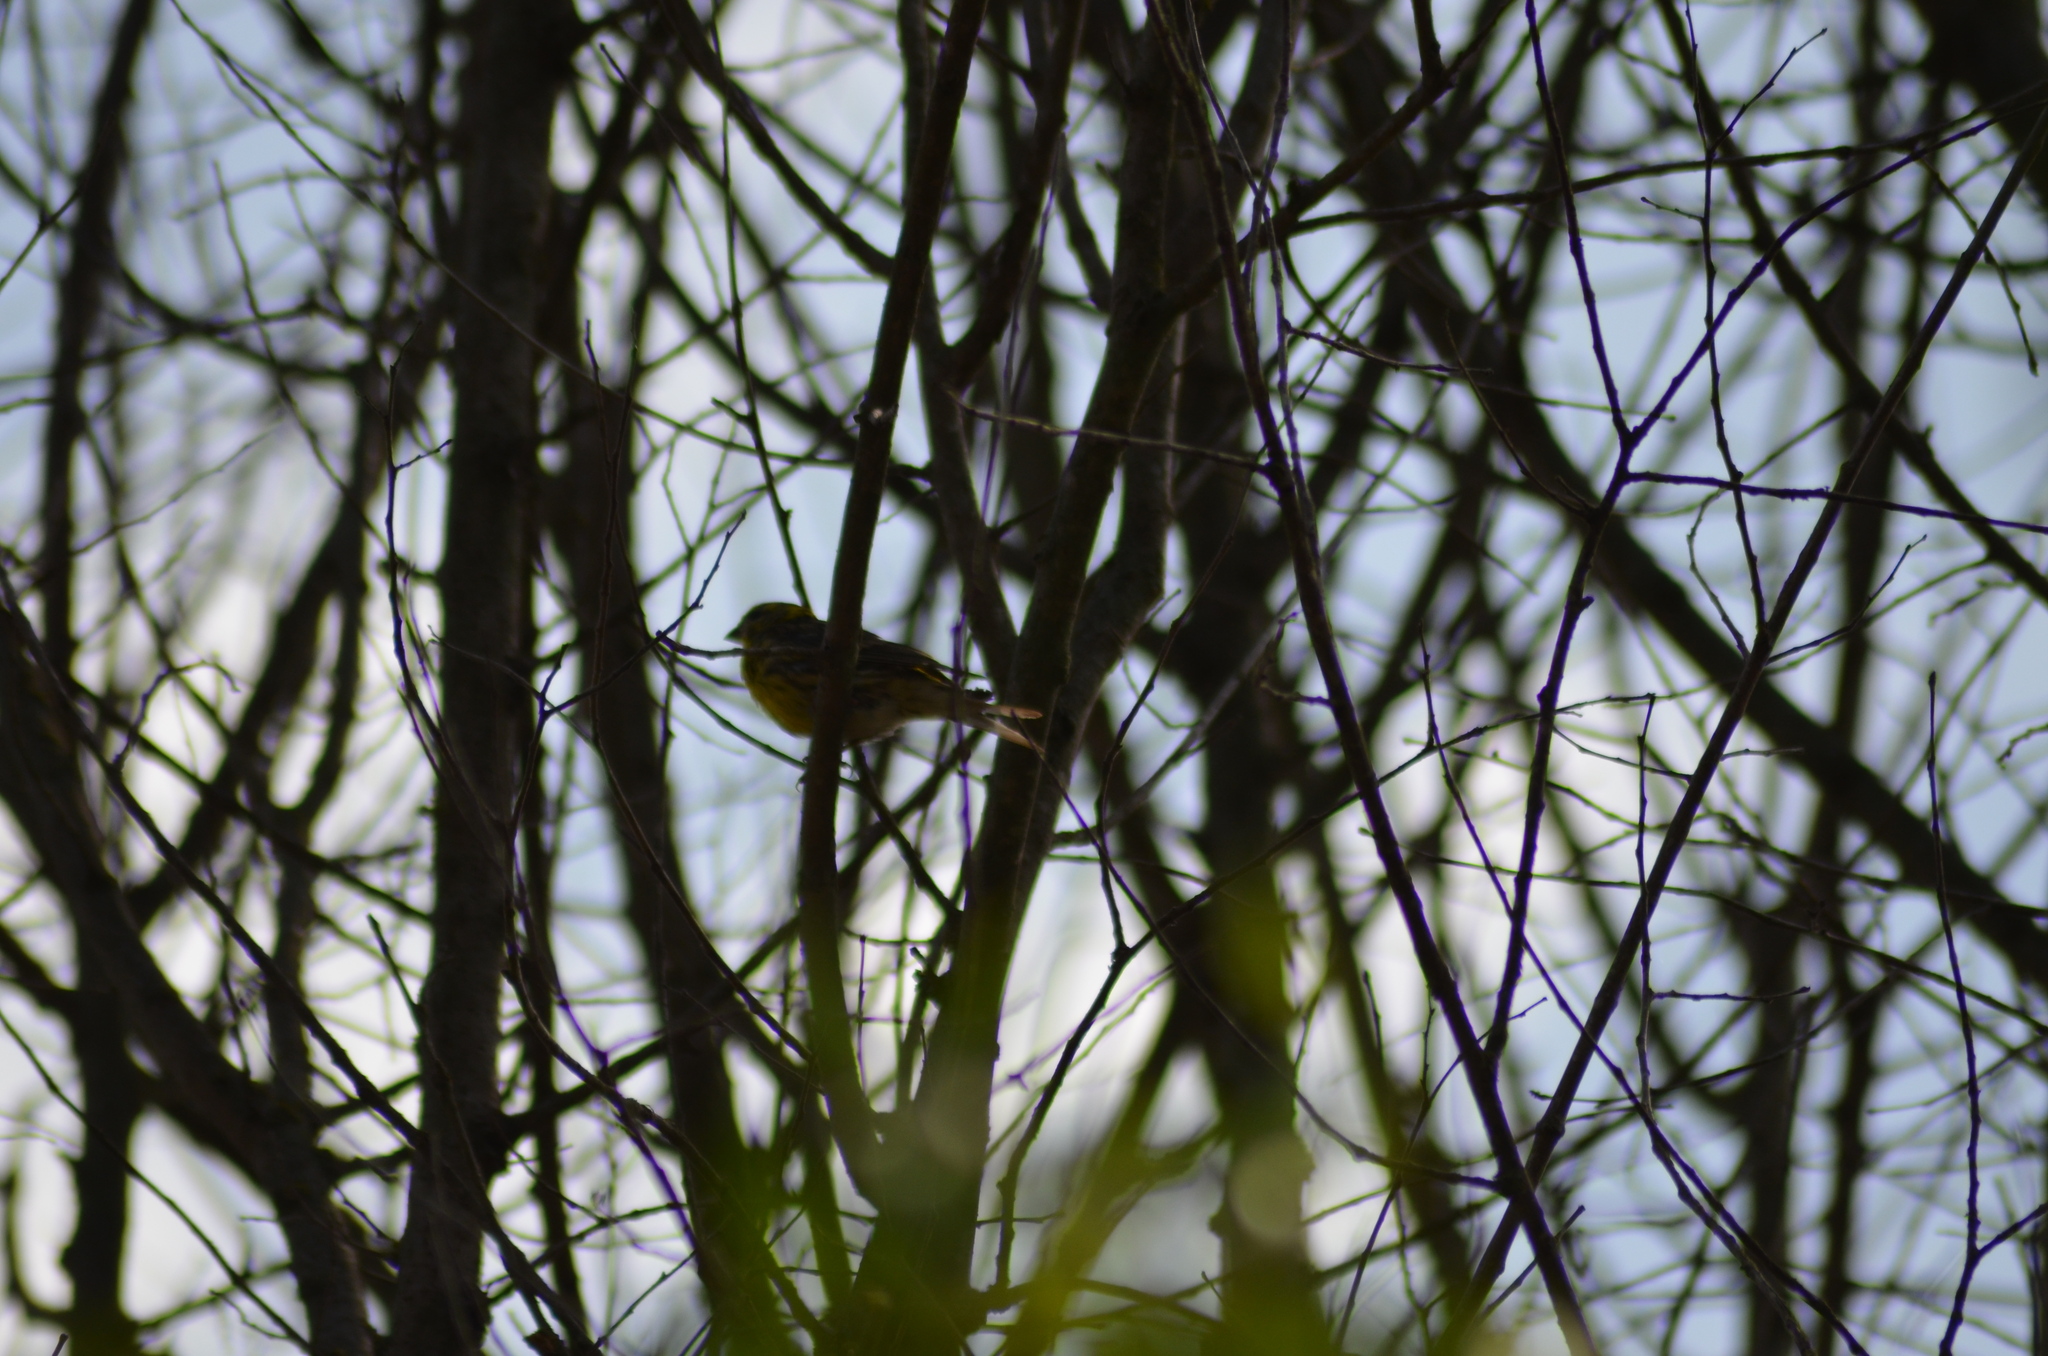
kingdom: Animalia
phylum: Chordata
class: Aves
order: Passeriformes
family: Fringillidae
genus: Serinus
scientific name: Serinus serinus
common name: European serin
